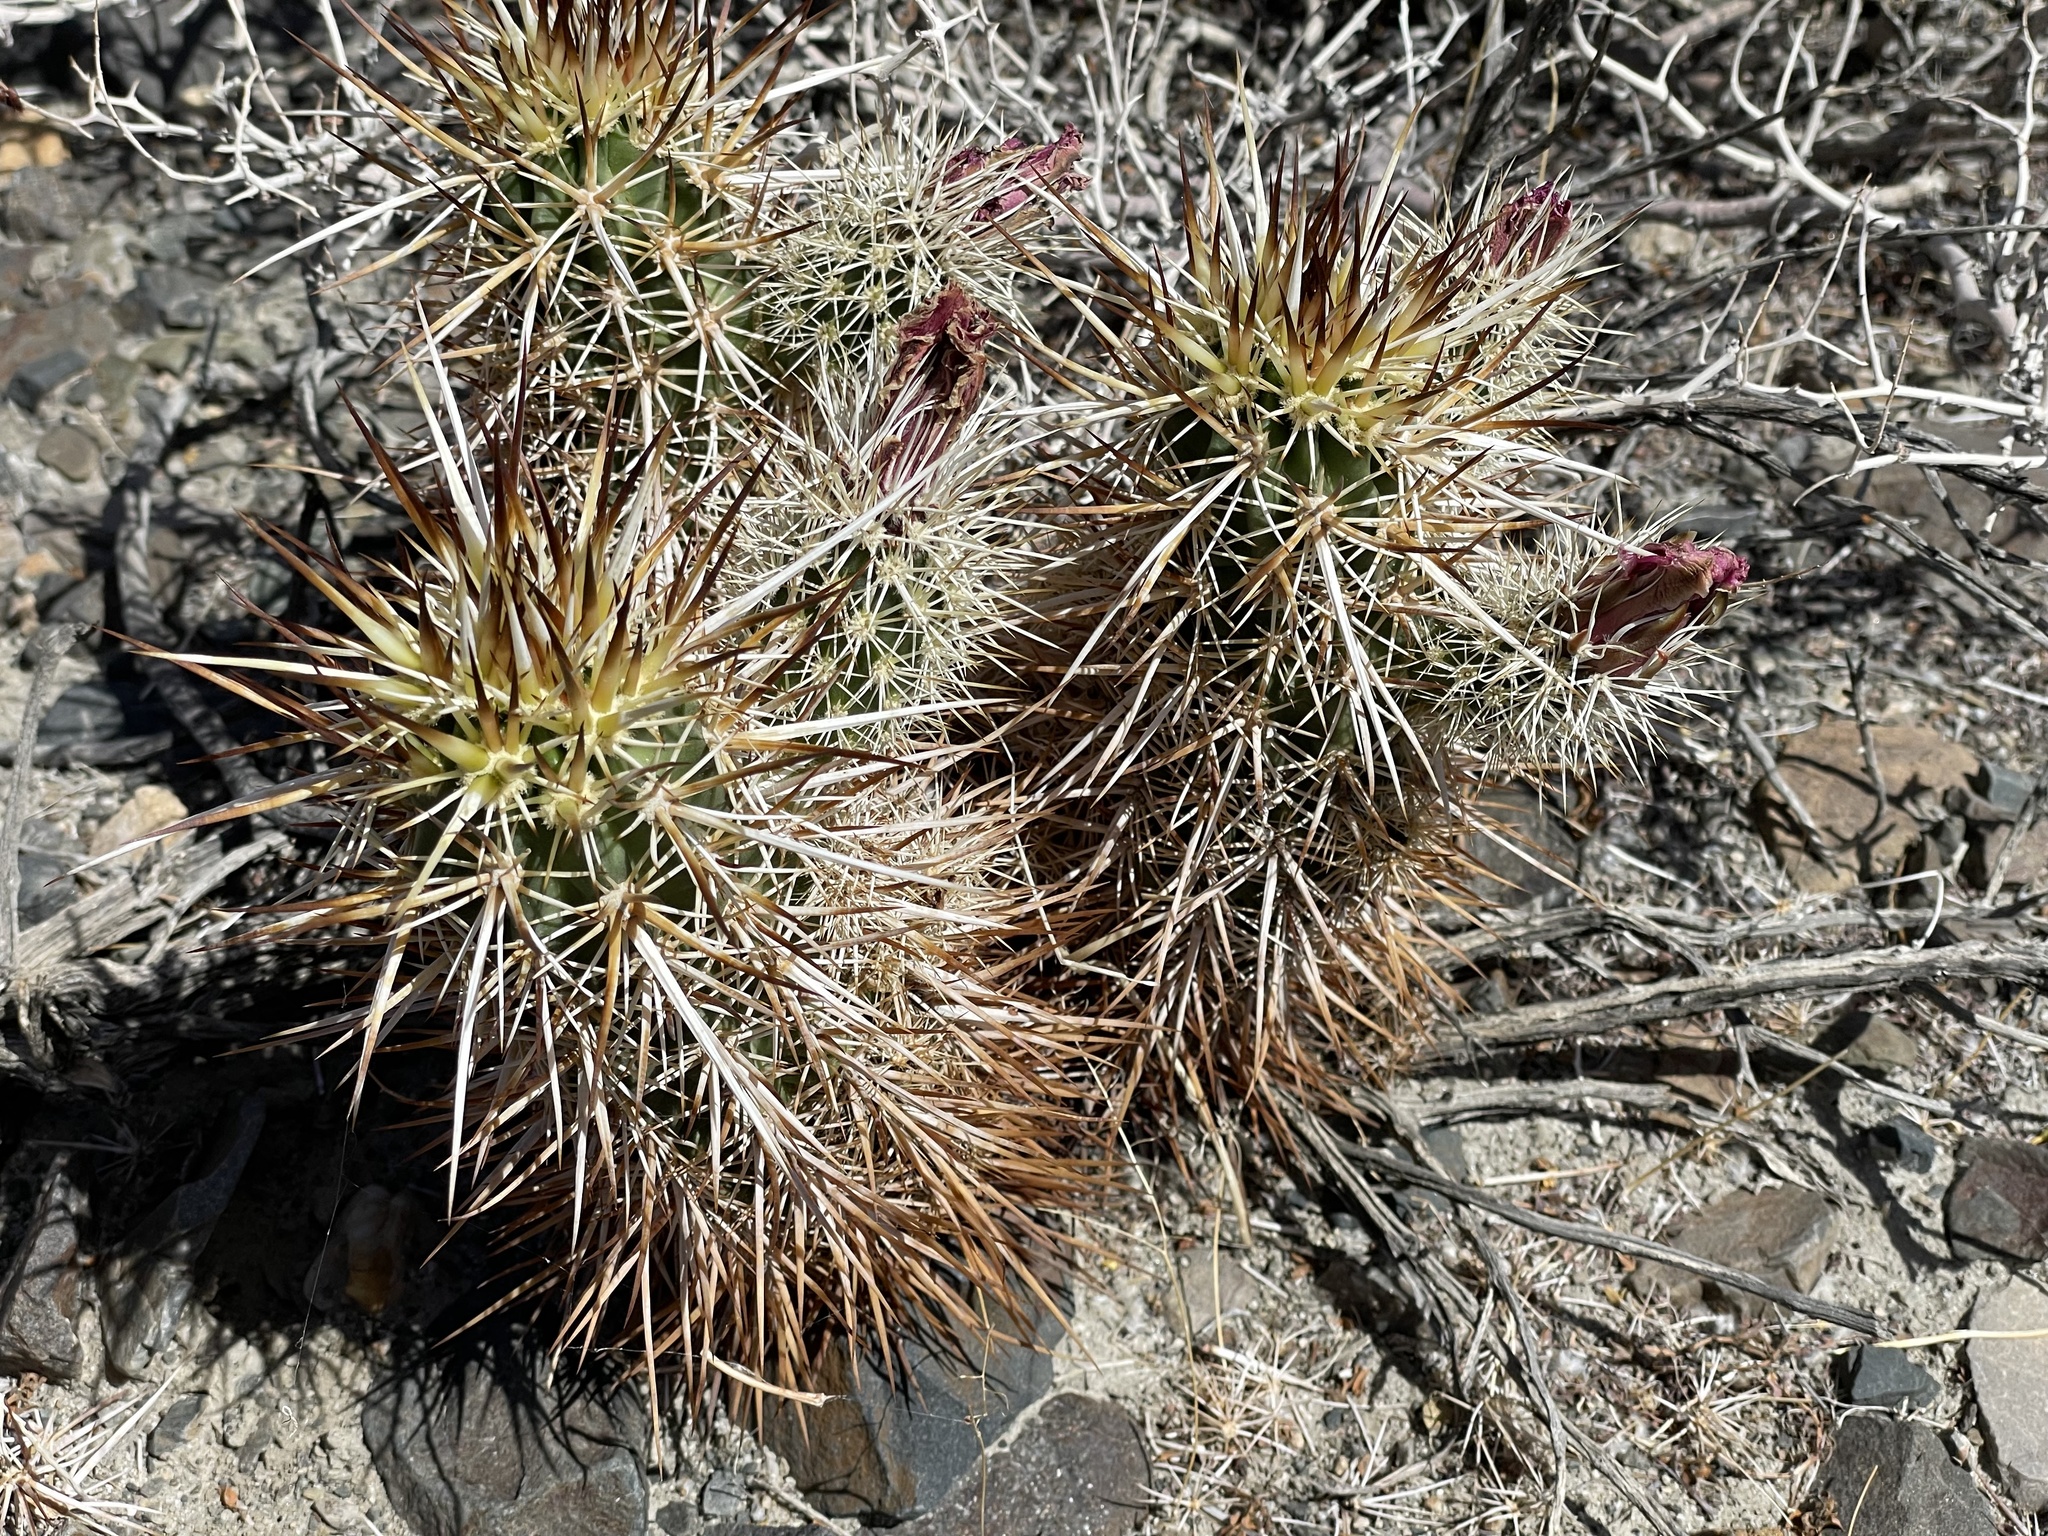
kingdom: Plantae
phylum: Tracheophyta
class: Magnoliopsida
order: Caryophyllales
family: Cactaceae
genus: Echinocereus
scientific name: Echinocereus engelmannii
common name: Engelmann's hedgehog cactus
